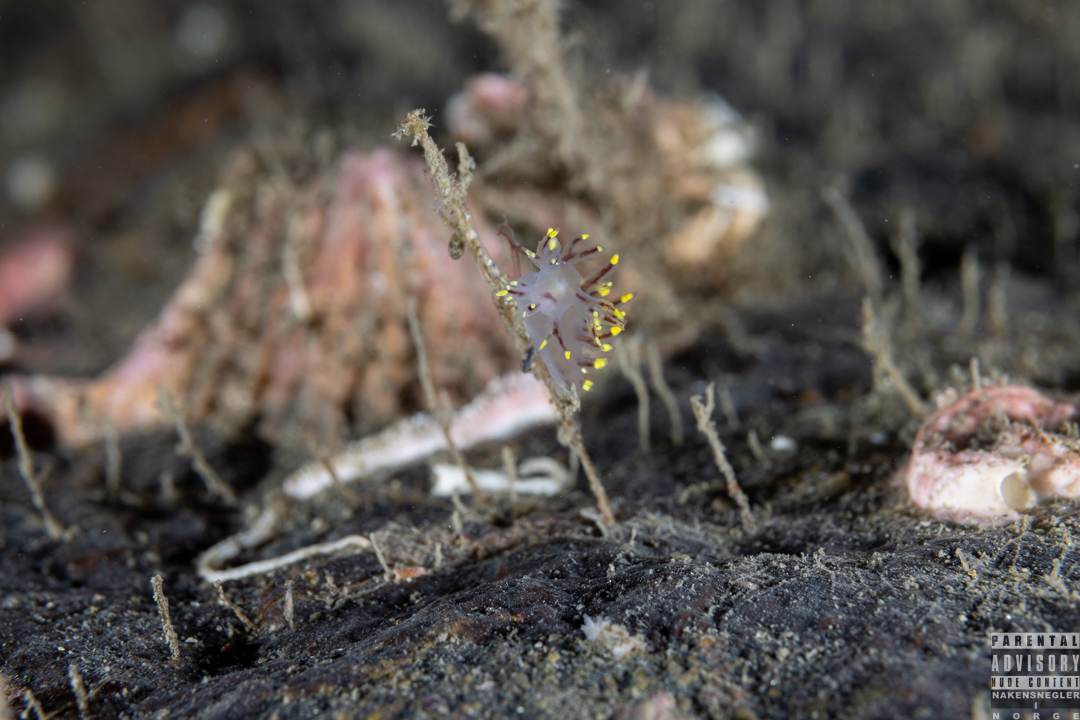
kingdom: Animalia
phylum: Mollusca
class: Gastropoda
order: Nudibranchia
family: Dendronotidae
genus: Dendronotus
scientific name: Dendronotus arcticus
